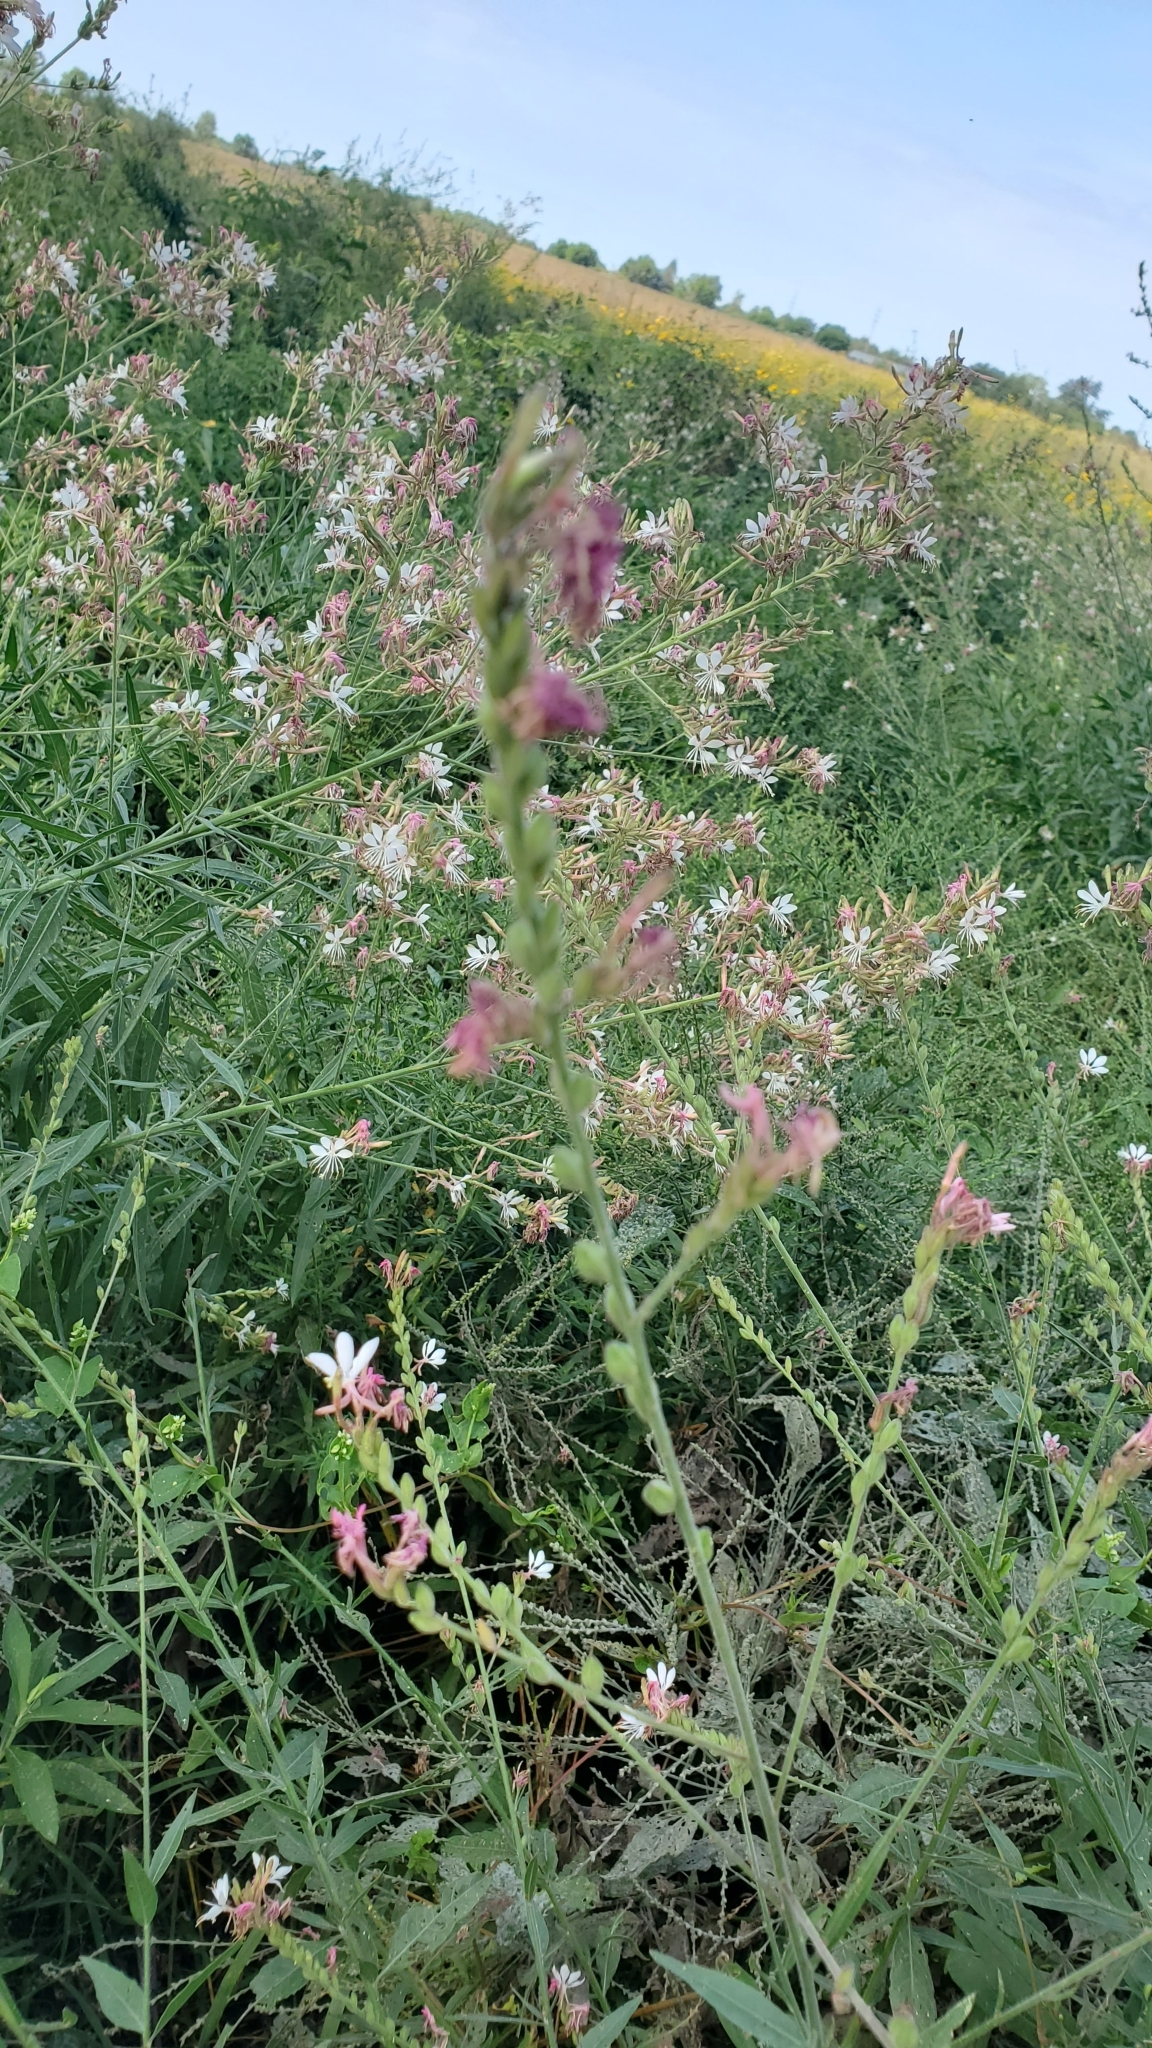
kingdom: Plantae
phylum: Tracheophyta
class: Magnoliopsida
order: Myrtales
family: Onagraceae
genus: Oenothera
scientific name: Oenothera gaura
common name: Biennial beeblossom
